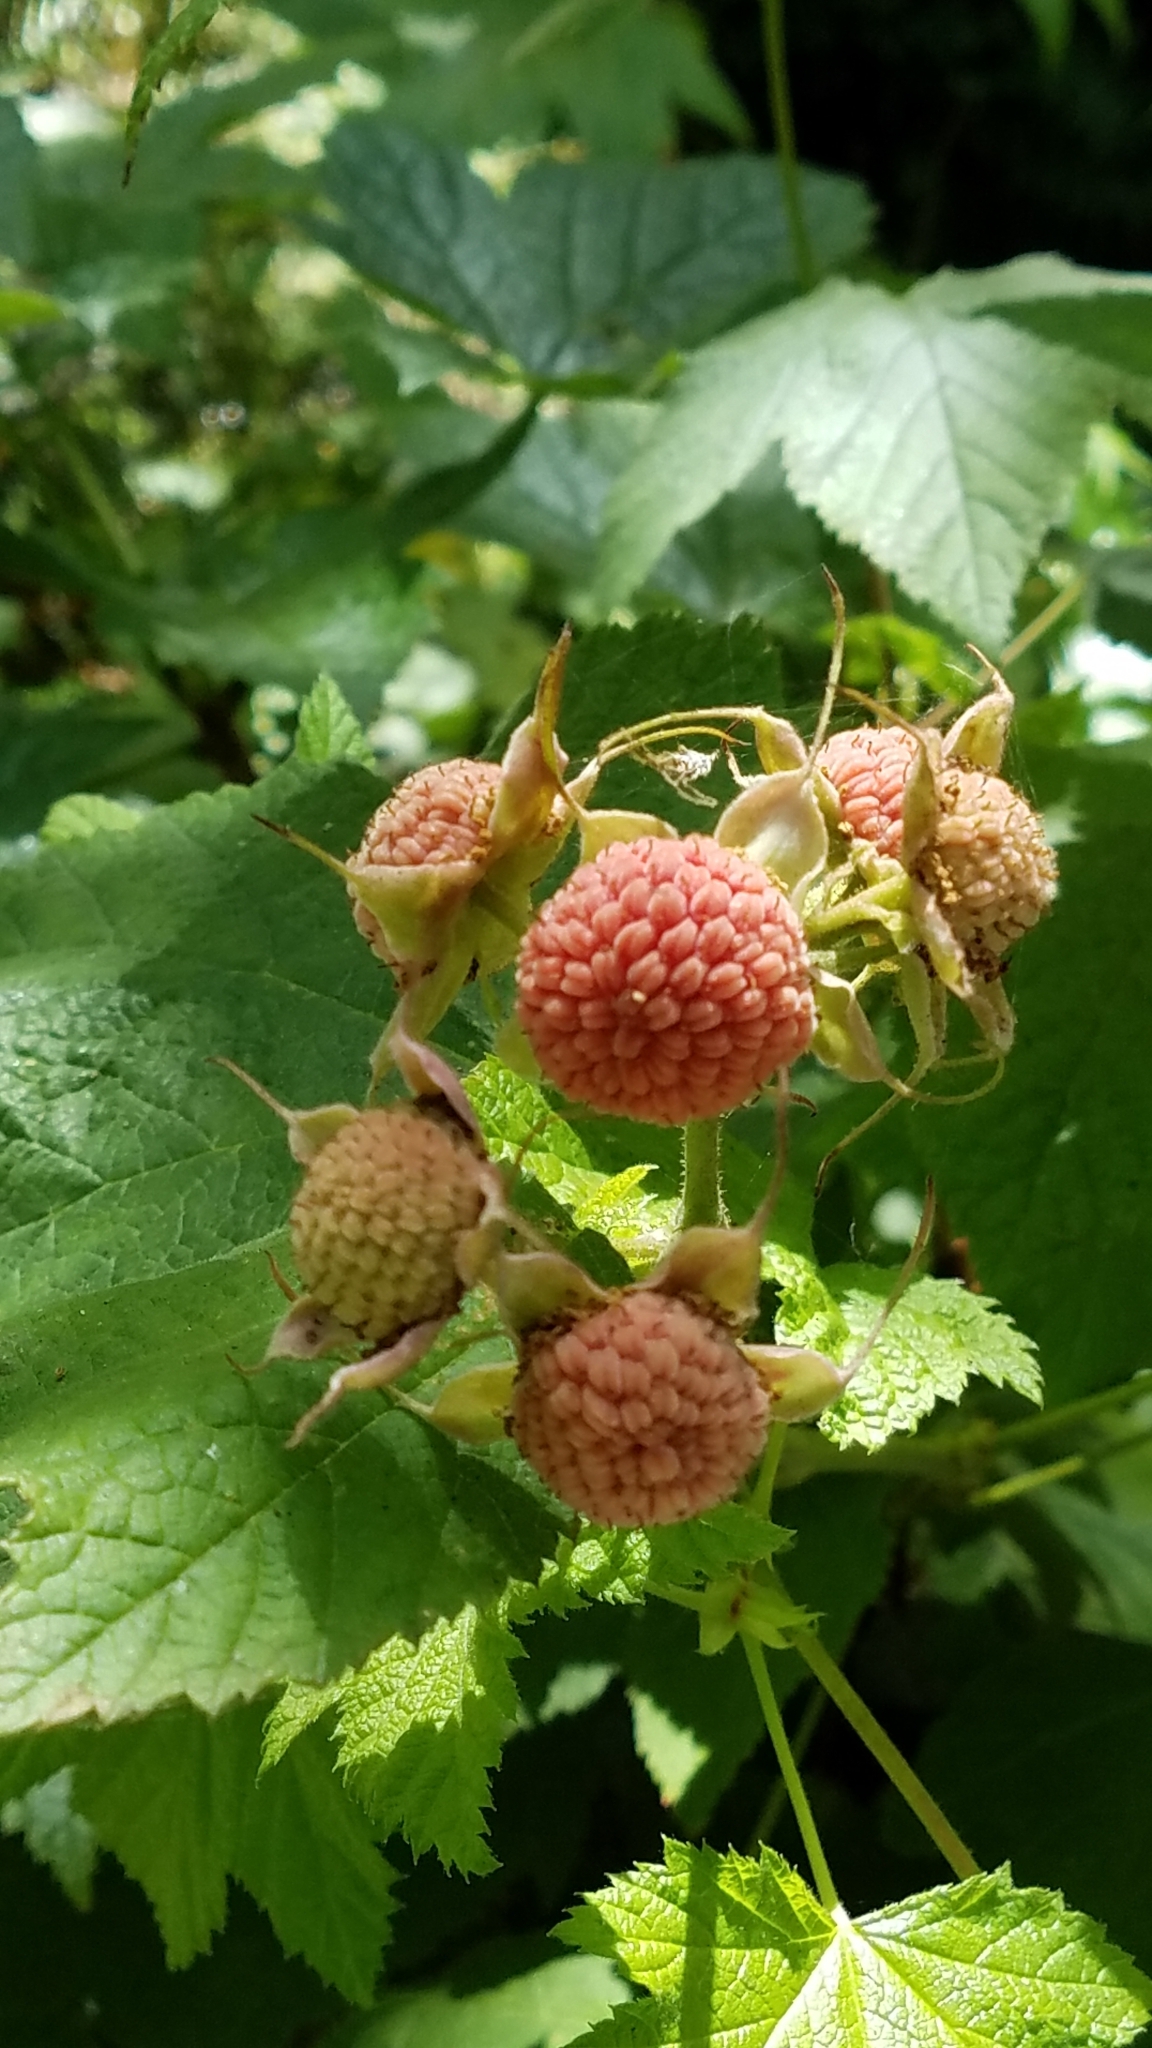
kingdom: Plantae
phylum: Tracheophyta
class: Magnoliopsida
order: Rosales
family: Rosaceae
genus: Rubus
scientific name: Rubus parviflorus
